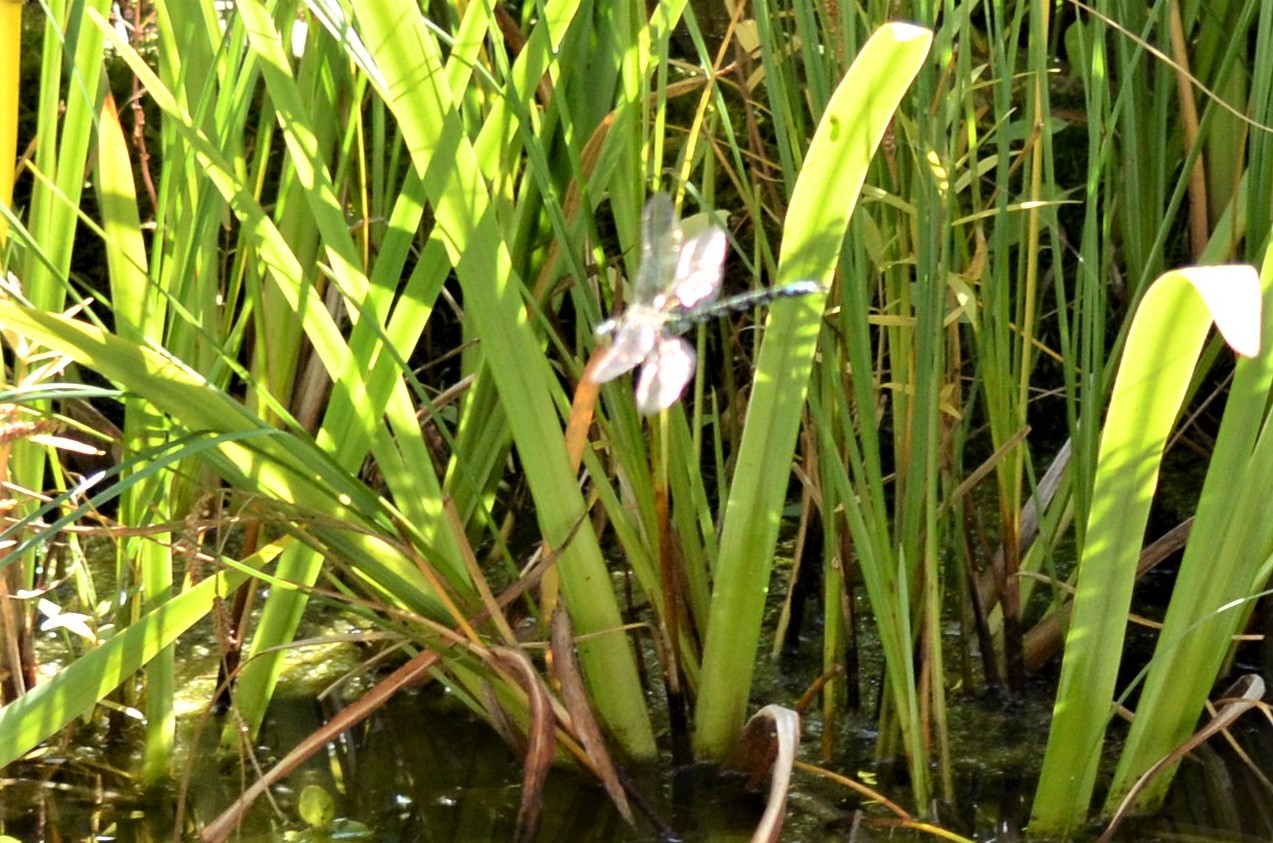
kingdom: Animalia
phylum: Arthropoda
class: Insecta
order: Odonata
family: Aeshnidae
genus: Aeshna
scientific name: Aeshna cyanea
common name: Southern hawker
